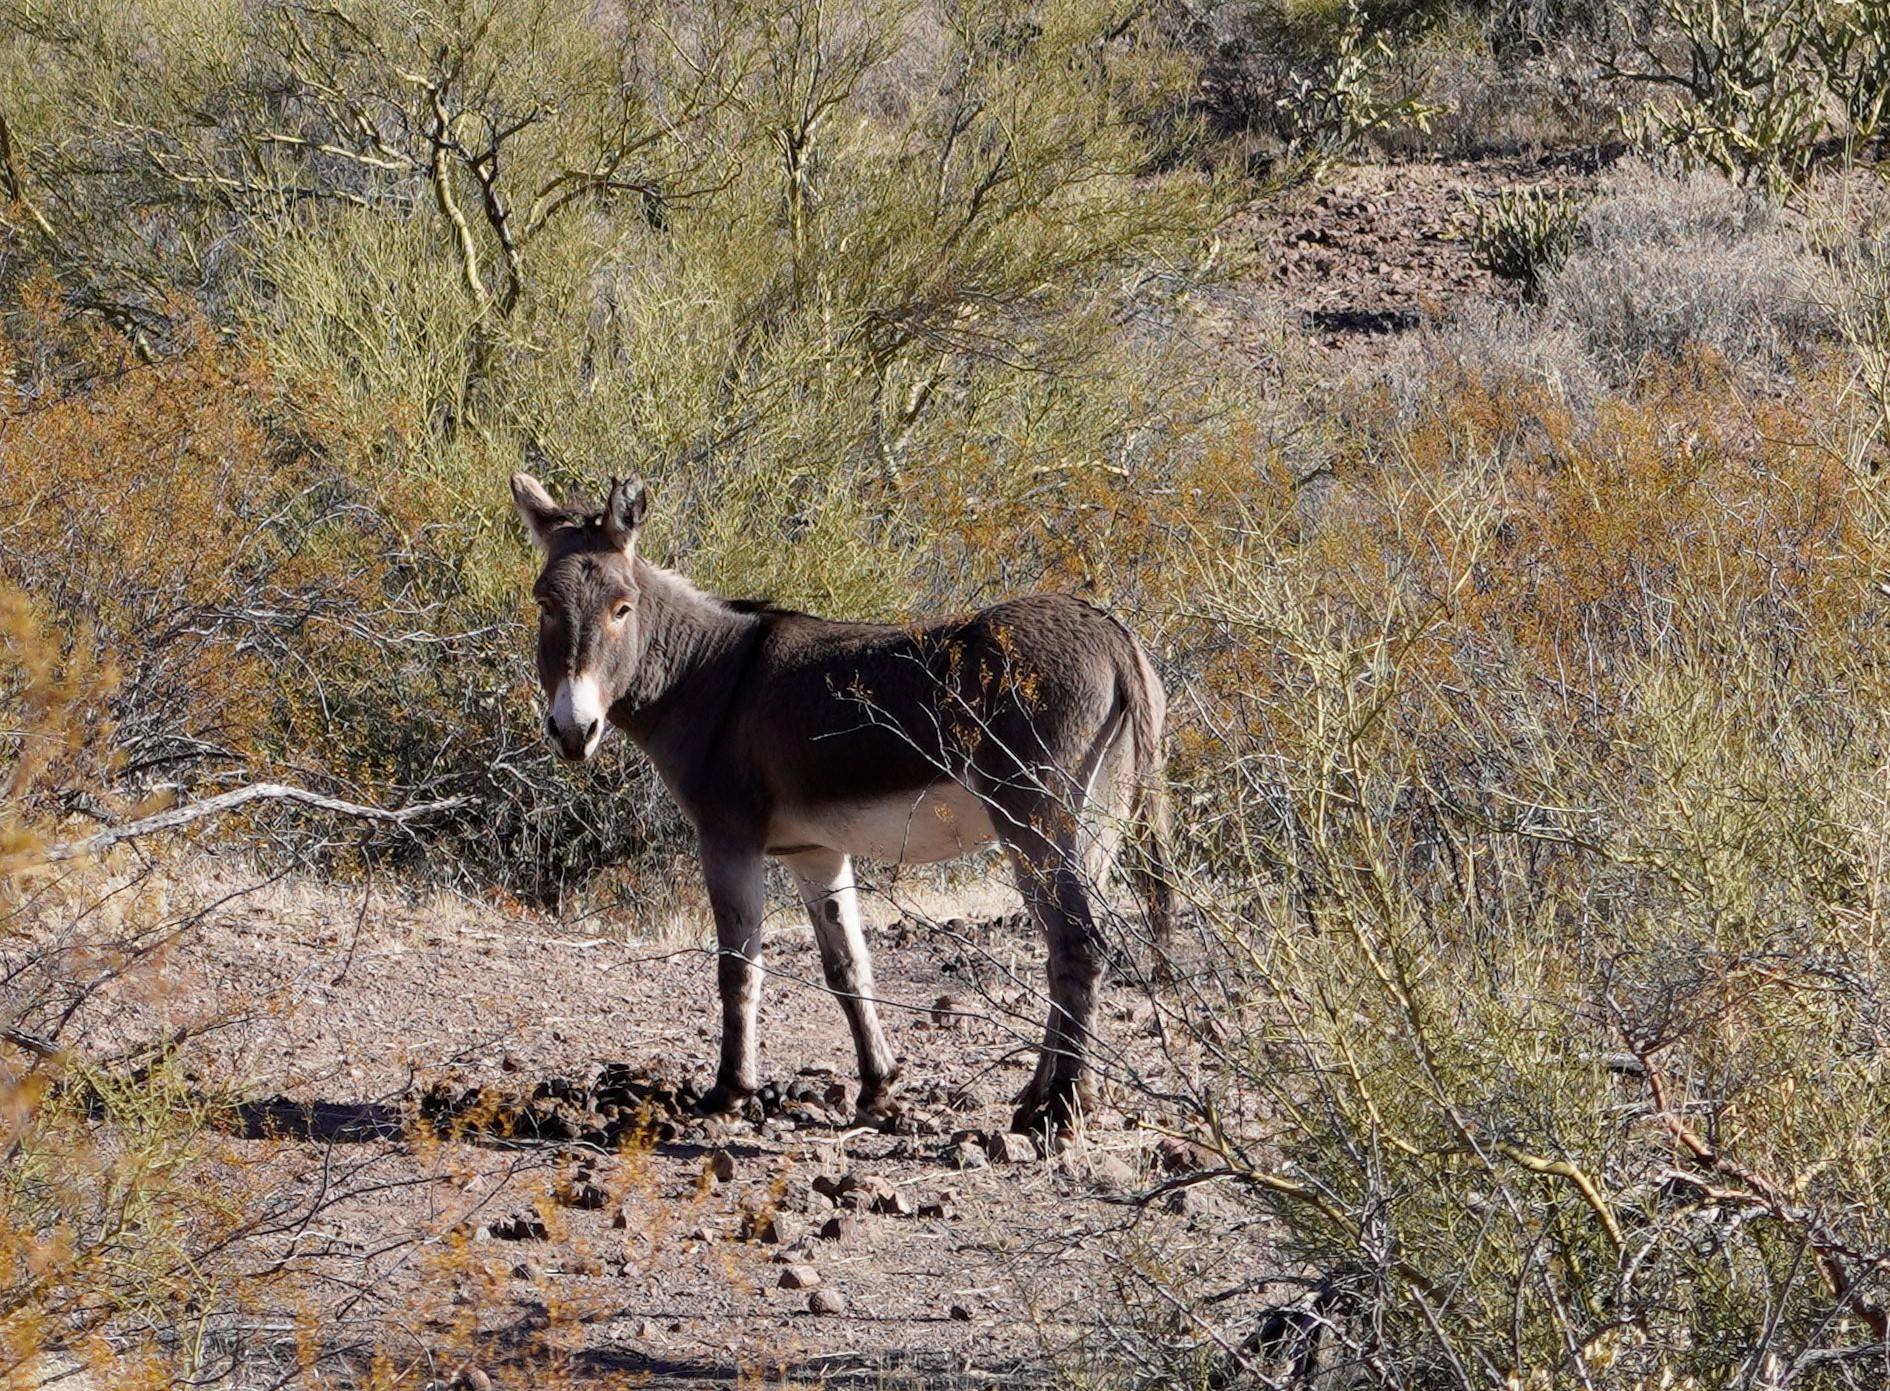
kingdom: Animalia
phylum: Chordata
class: Mammalia
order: Perissodactyla
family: Equidae
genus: Equus
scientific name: Equus asinus
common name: Ass
